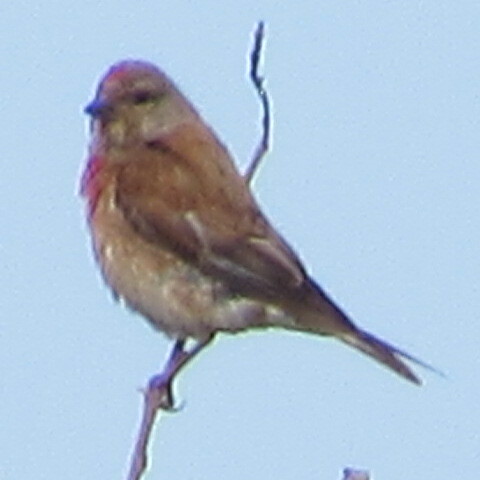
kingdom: Animalia
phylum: Chordata
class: Aves
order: Passeriformes
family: Fringillidae
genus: Linaria
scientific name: Linaria cannabina
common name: Common linnet
